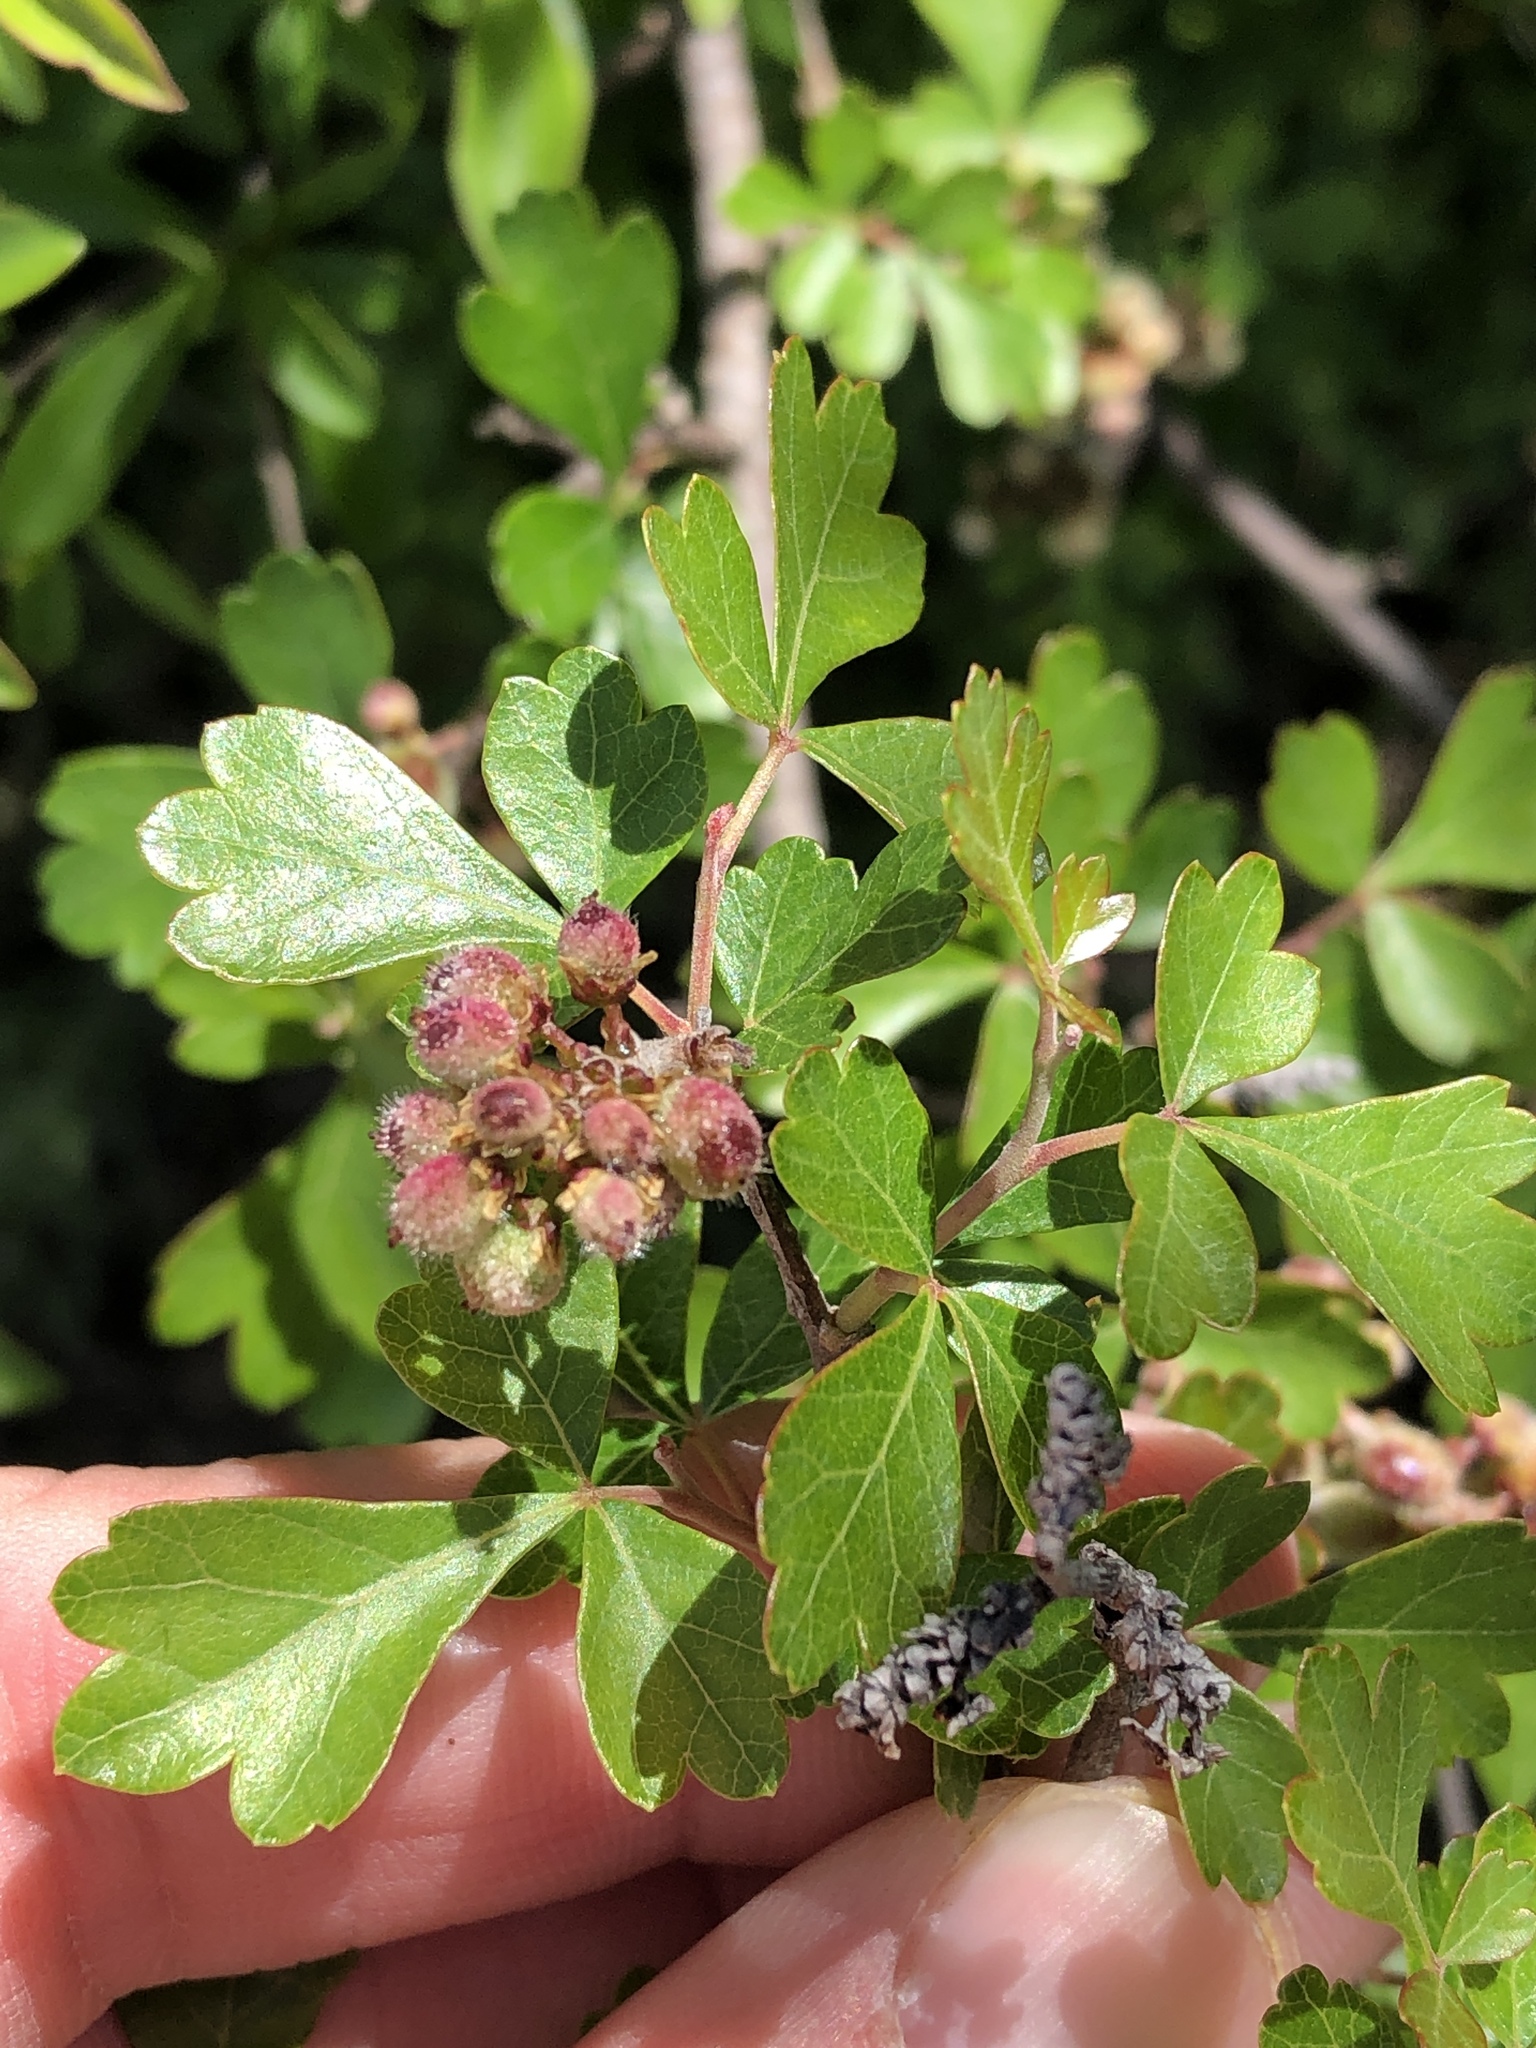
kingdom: Plantae
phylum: Tracheophyta
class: Magnoliopsida
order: Sapindales
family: Anacardiaceae
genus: Rhus
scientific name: Rhus aromatica
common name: Aromatic sumac
